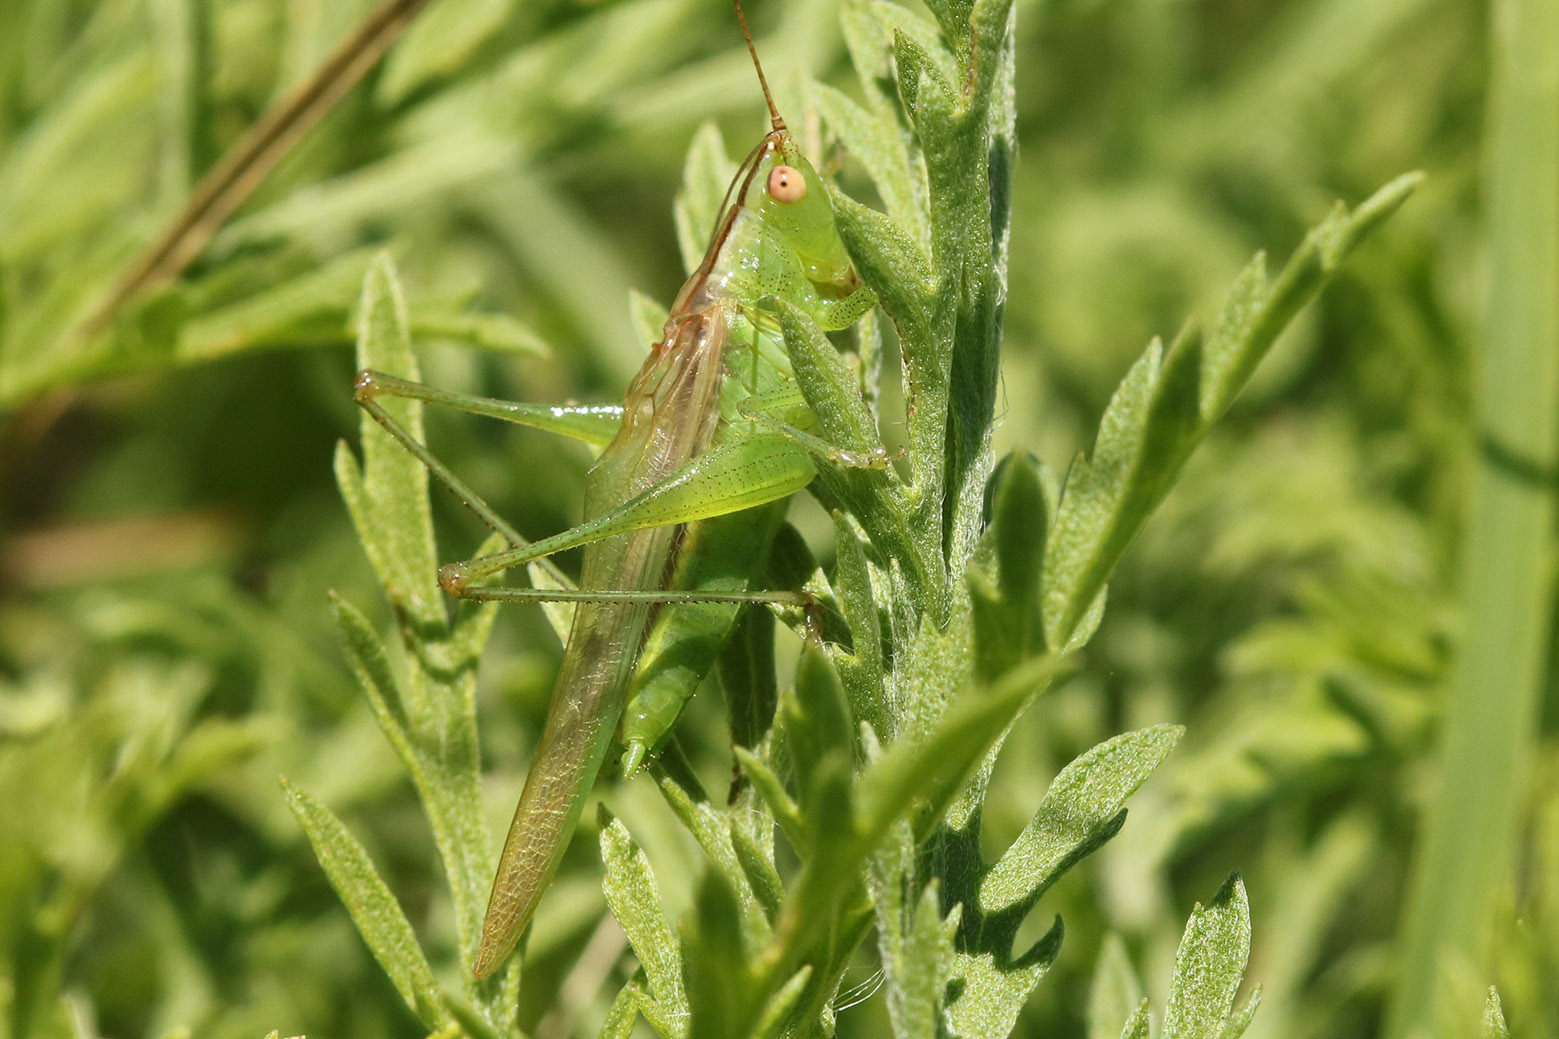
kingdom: Animalia
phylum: Arthropoda
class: Insecta
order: Orthoptera
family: Tettigoniidae
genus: Conocephalus
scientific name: Conocephalus longipes
